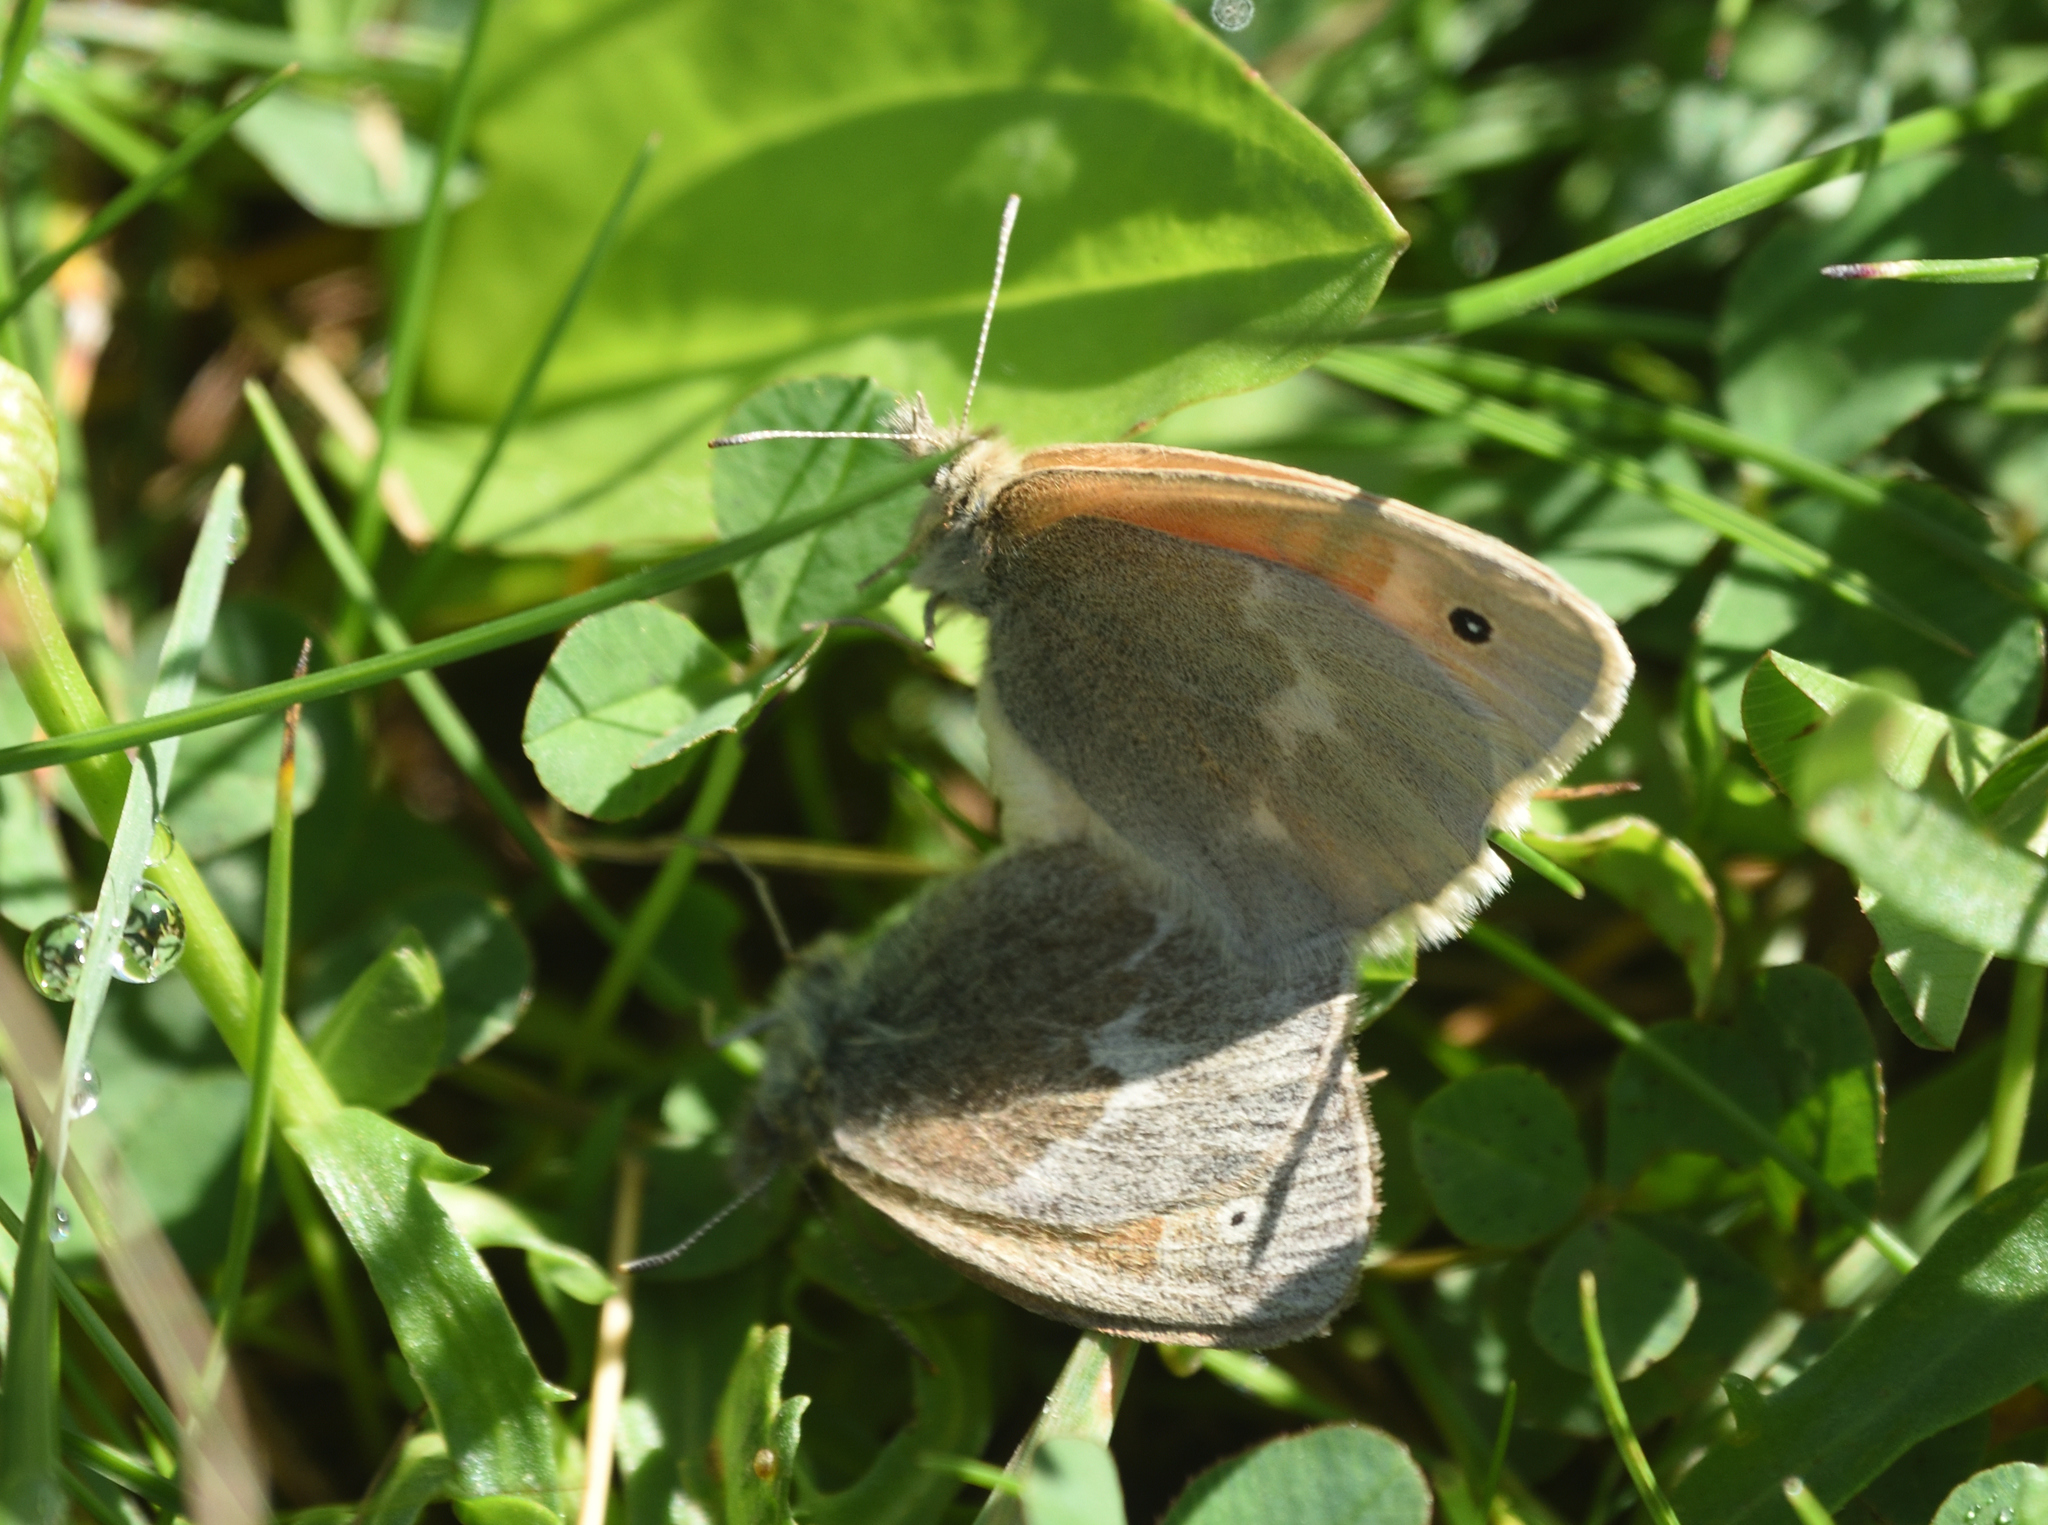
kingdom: Animalia
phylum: Arthropoda
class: Insecta
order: Lepidoptera
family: Nymphalidae
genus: Coenonympha
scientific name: Coenonympha california
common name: Common ringlet
